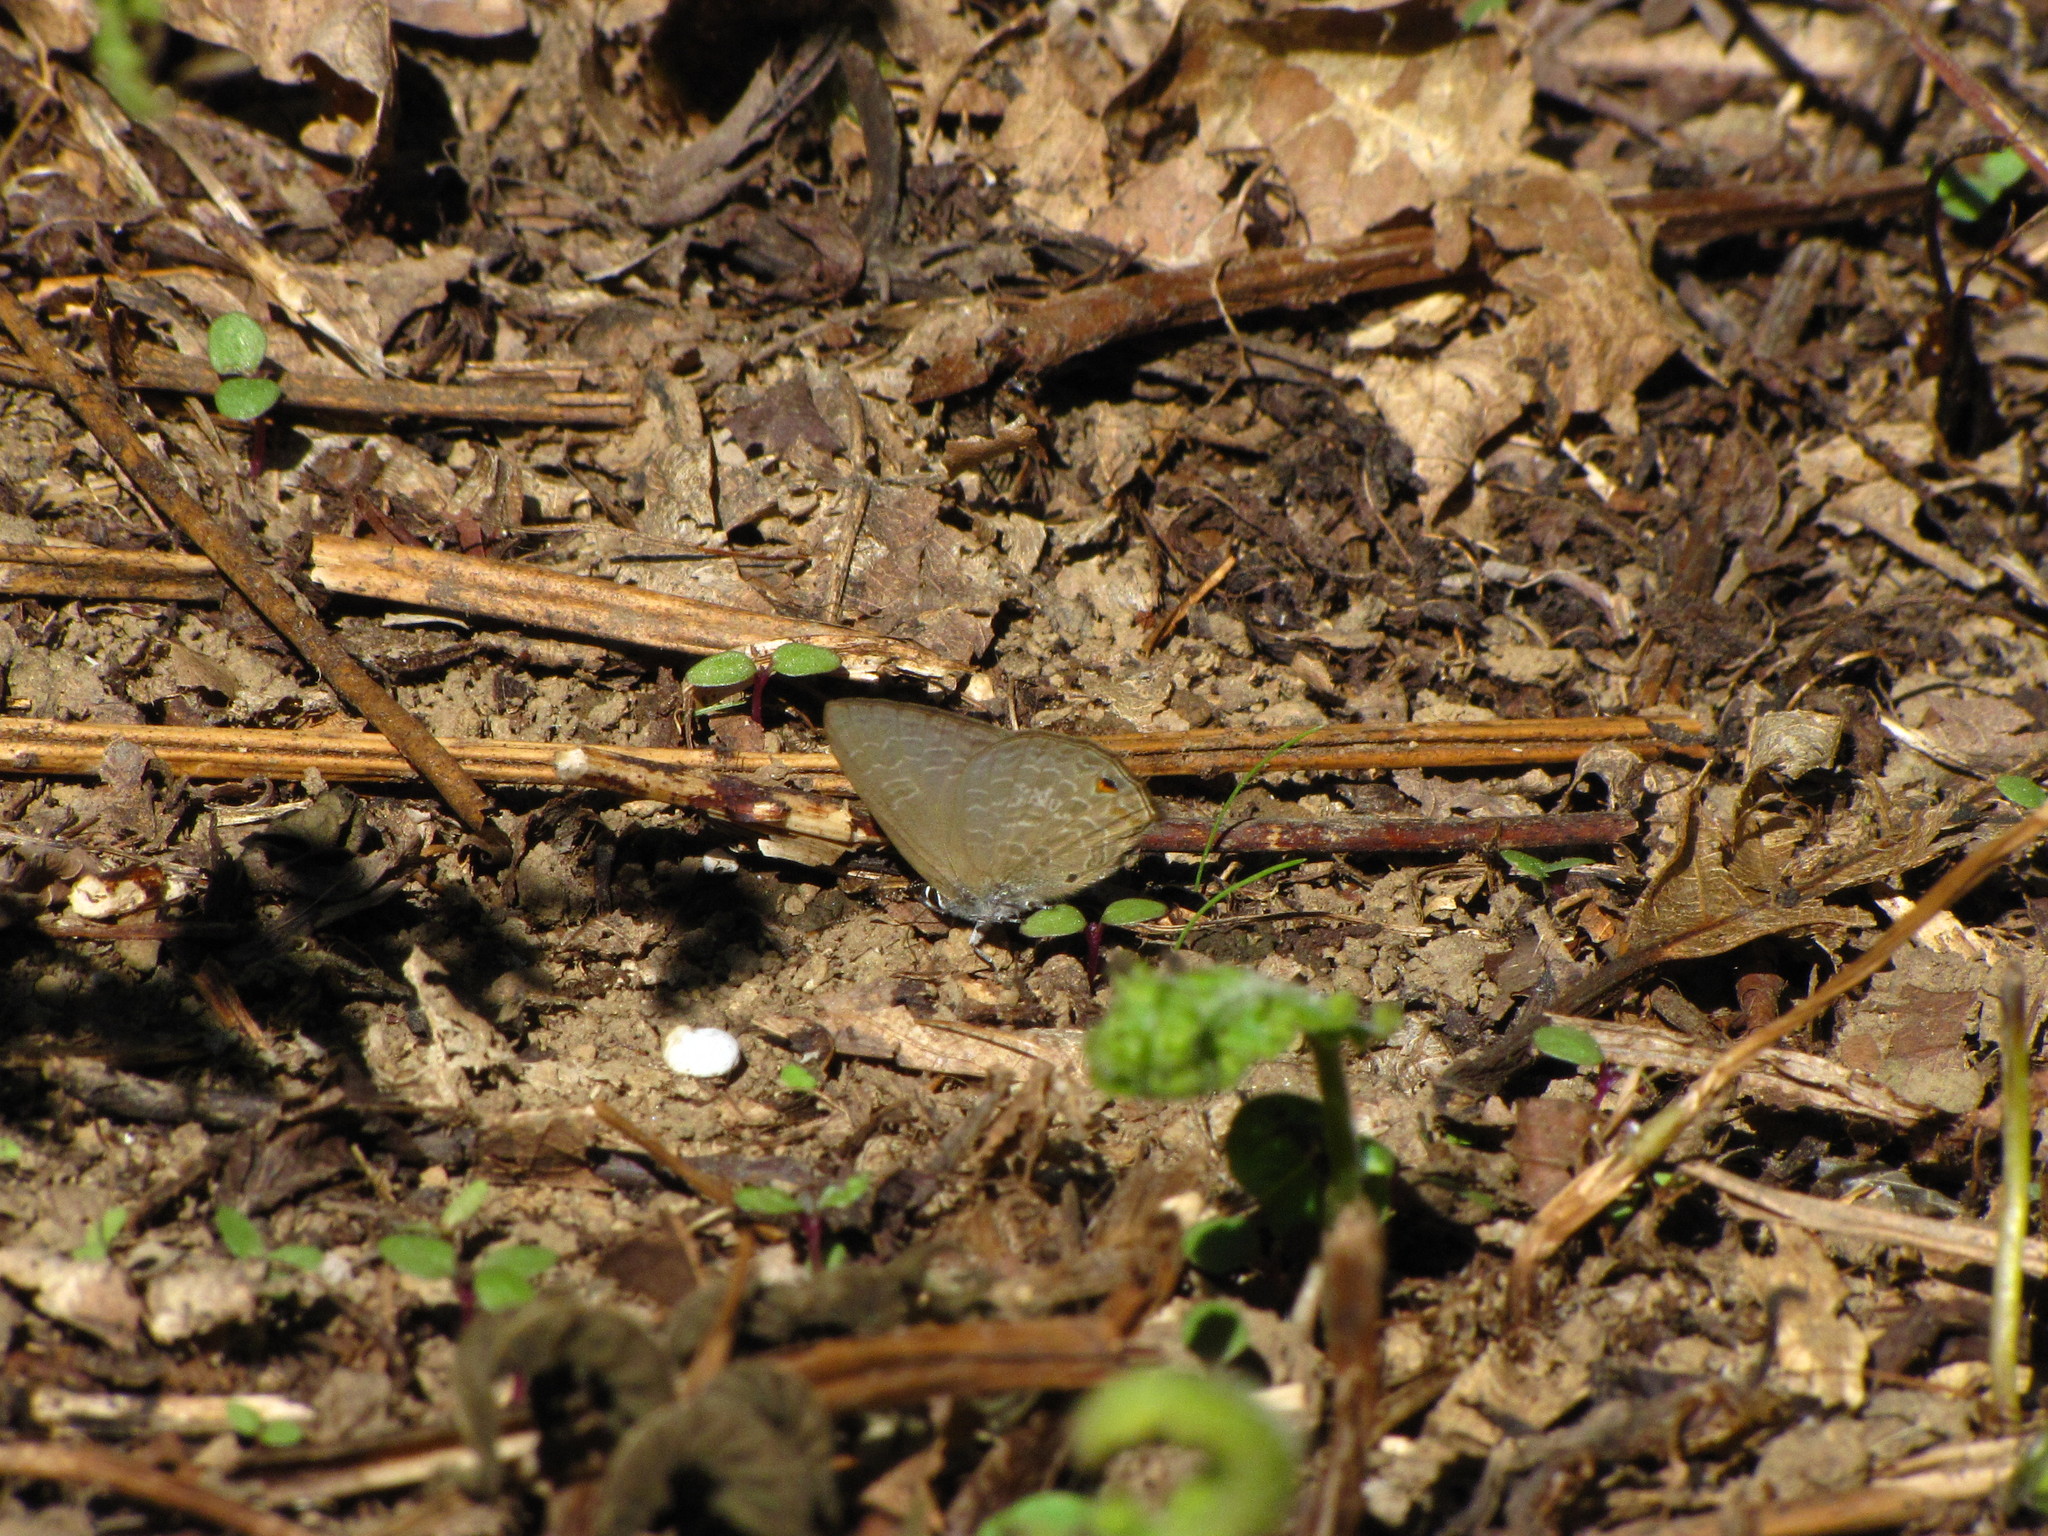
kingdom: Animalia
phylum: Arthropoda
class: Insecta
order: Lepidoptera
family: Lycaenidae
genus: Anthene
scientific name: Anthene emolus
